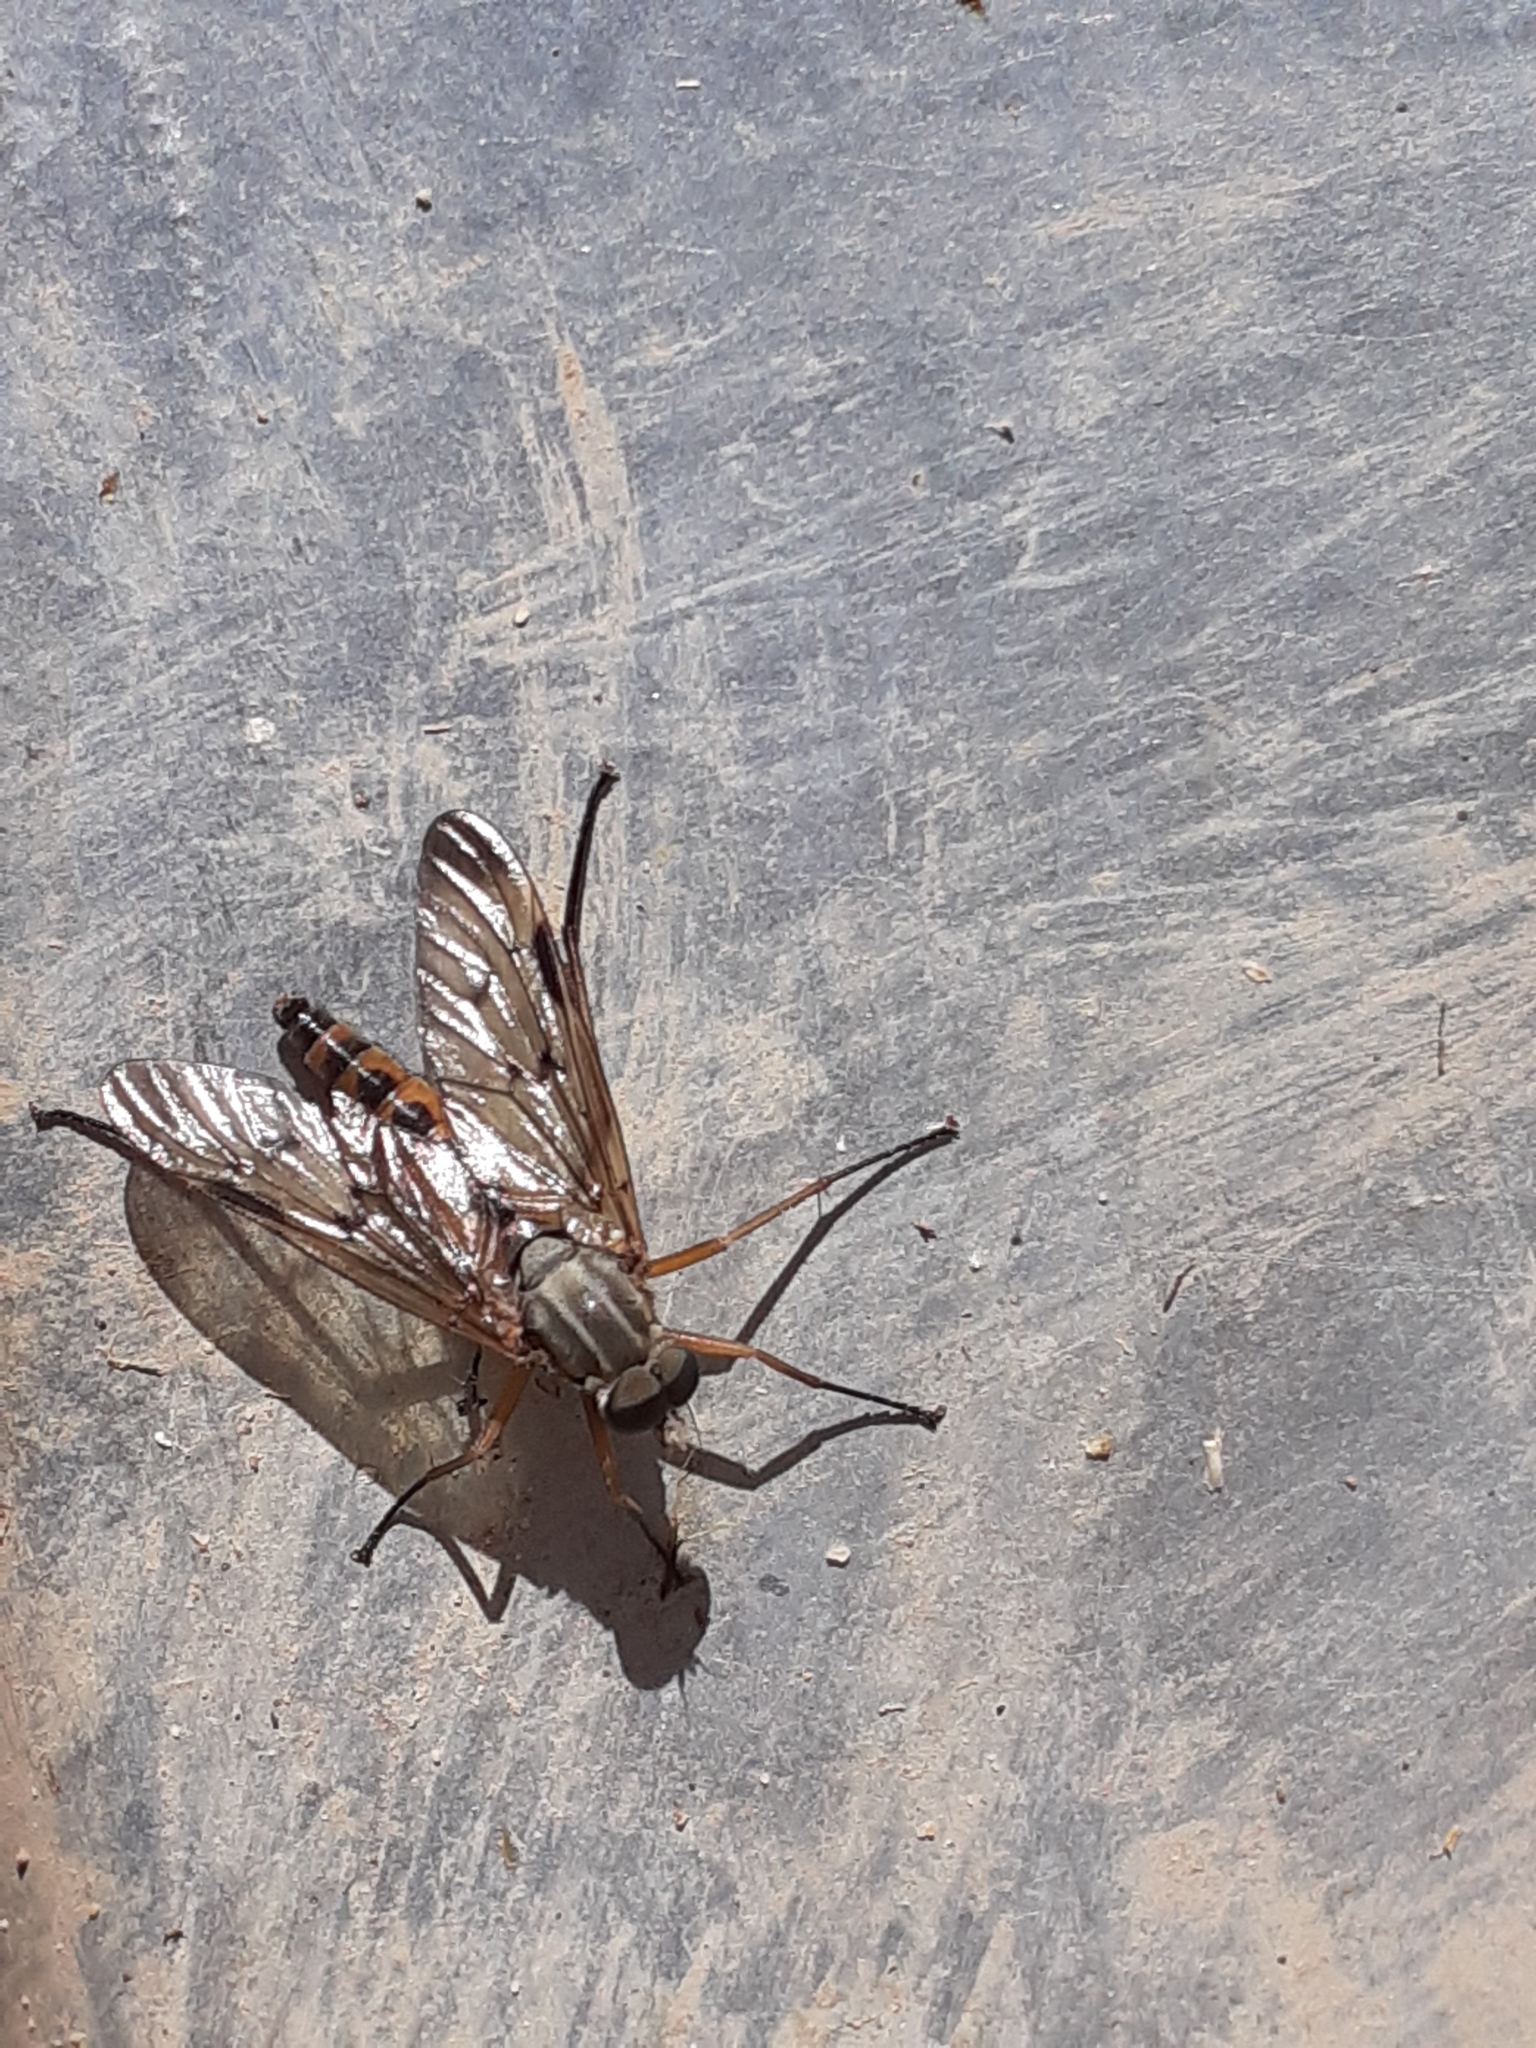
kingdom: Animalia
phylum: Arthropoda
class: Insecta
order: Diptera
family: Rhagionidae
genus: Rhagio
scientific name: Rhagio scolopacea
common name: Downlooker snipefly
